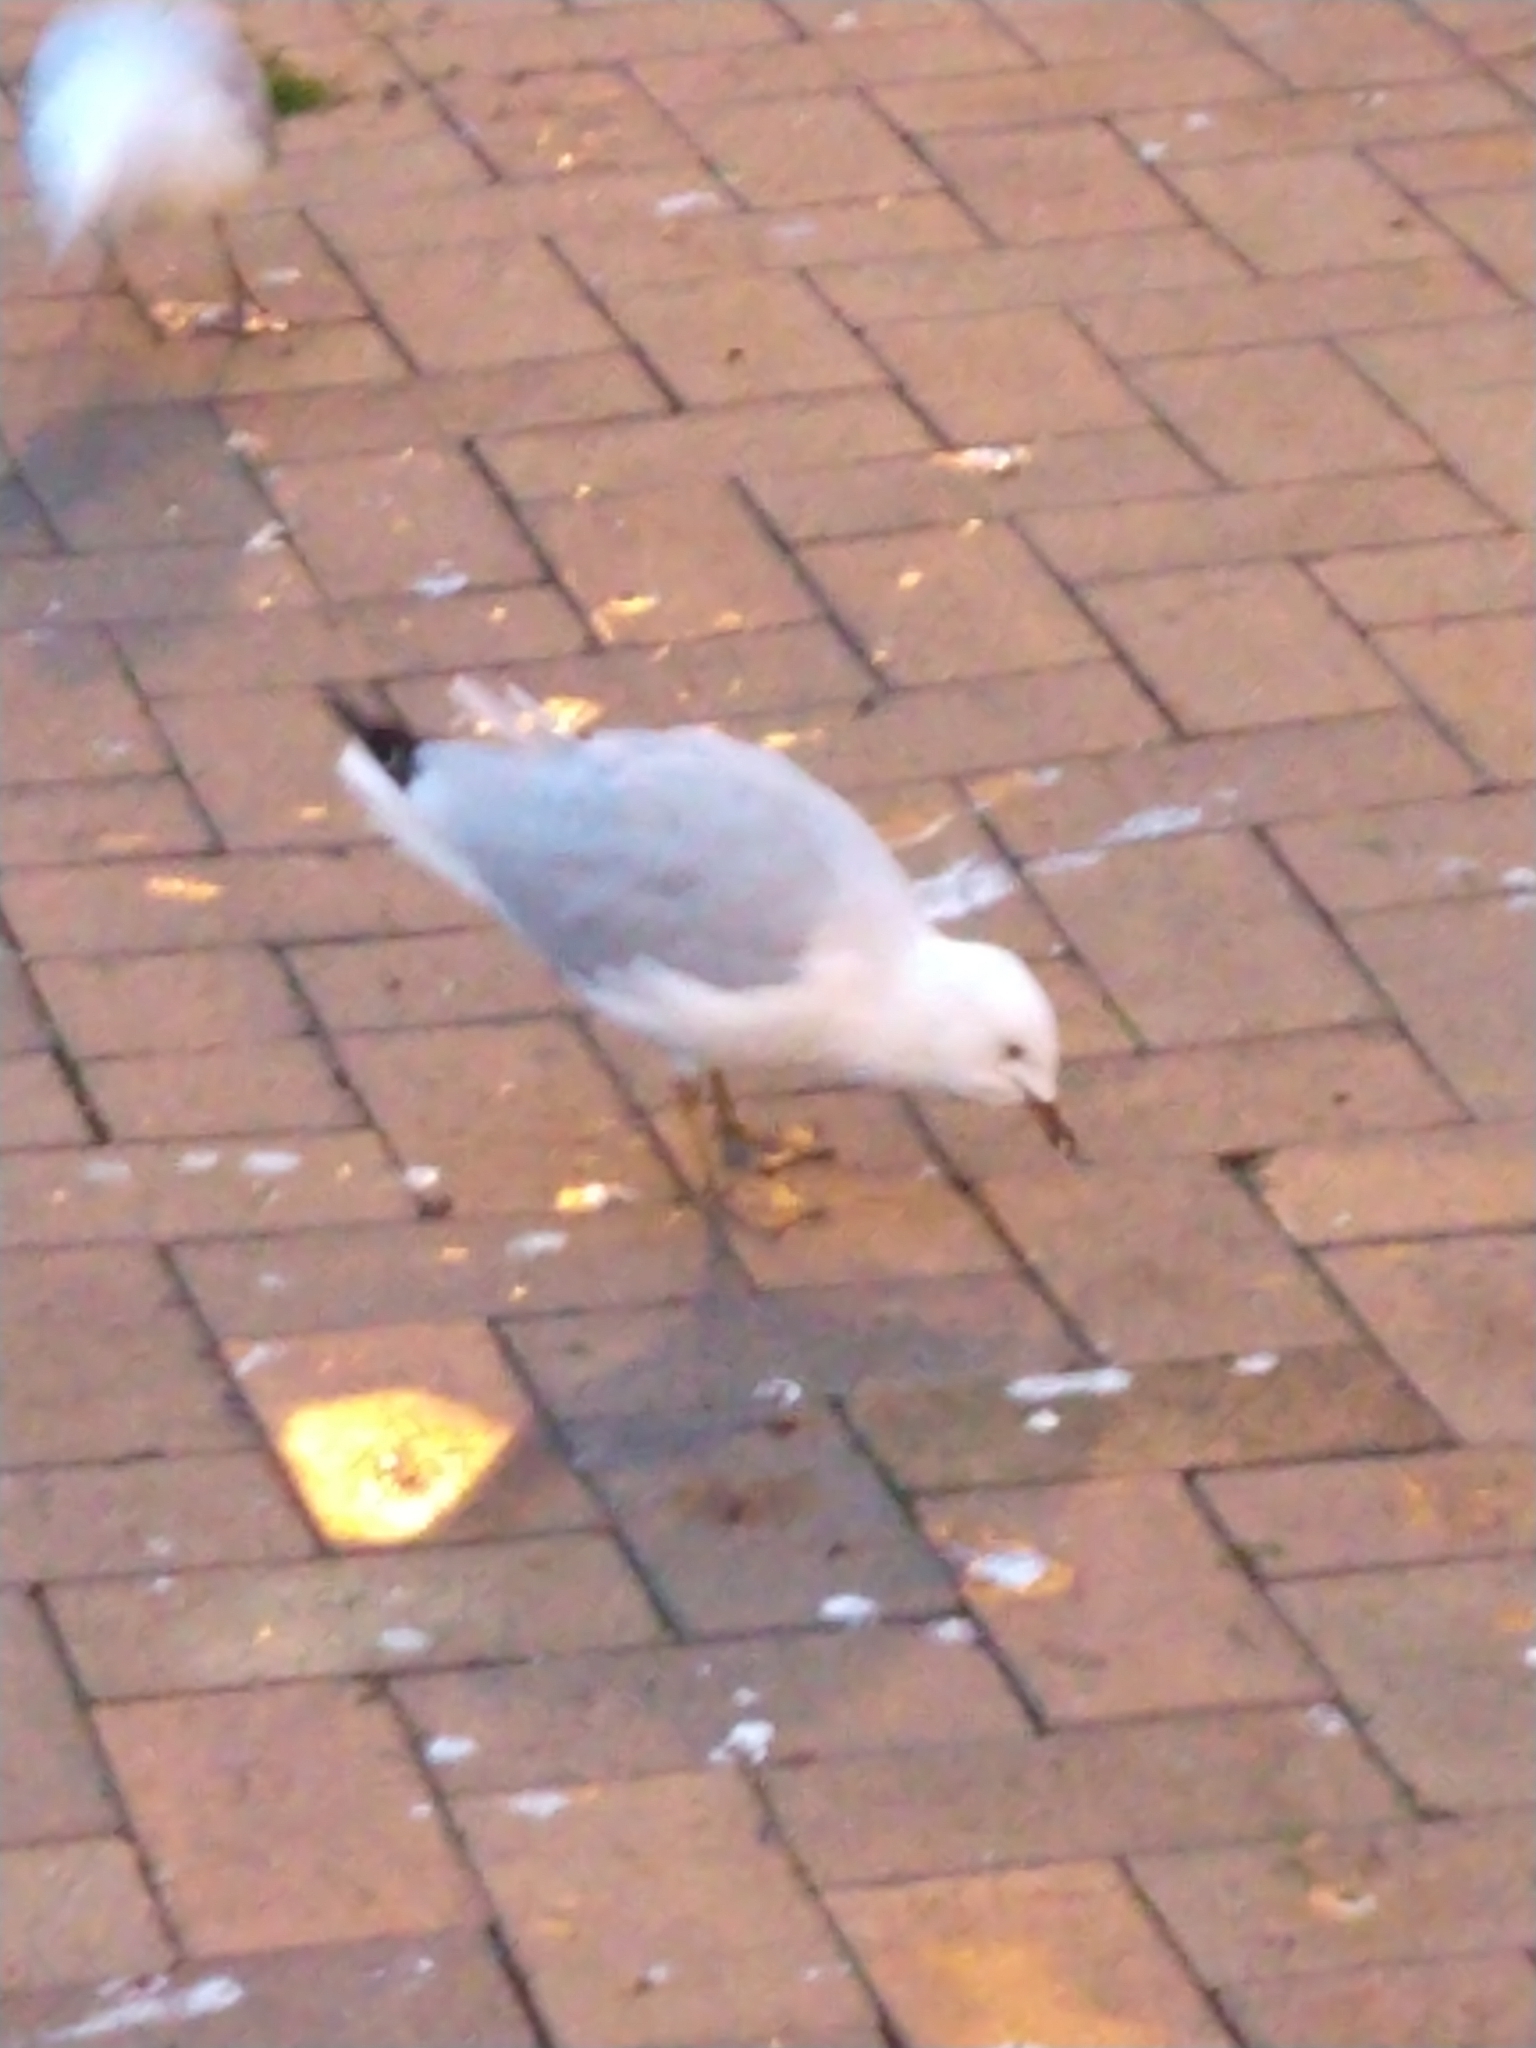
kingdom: Animalia
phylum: Chordata
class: Aves
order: Charadriiformes
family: Laridae
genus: Chroicocephalus
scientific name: Chroicocephalus novaehollandiae
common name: Silver gull
